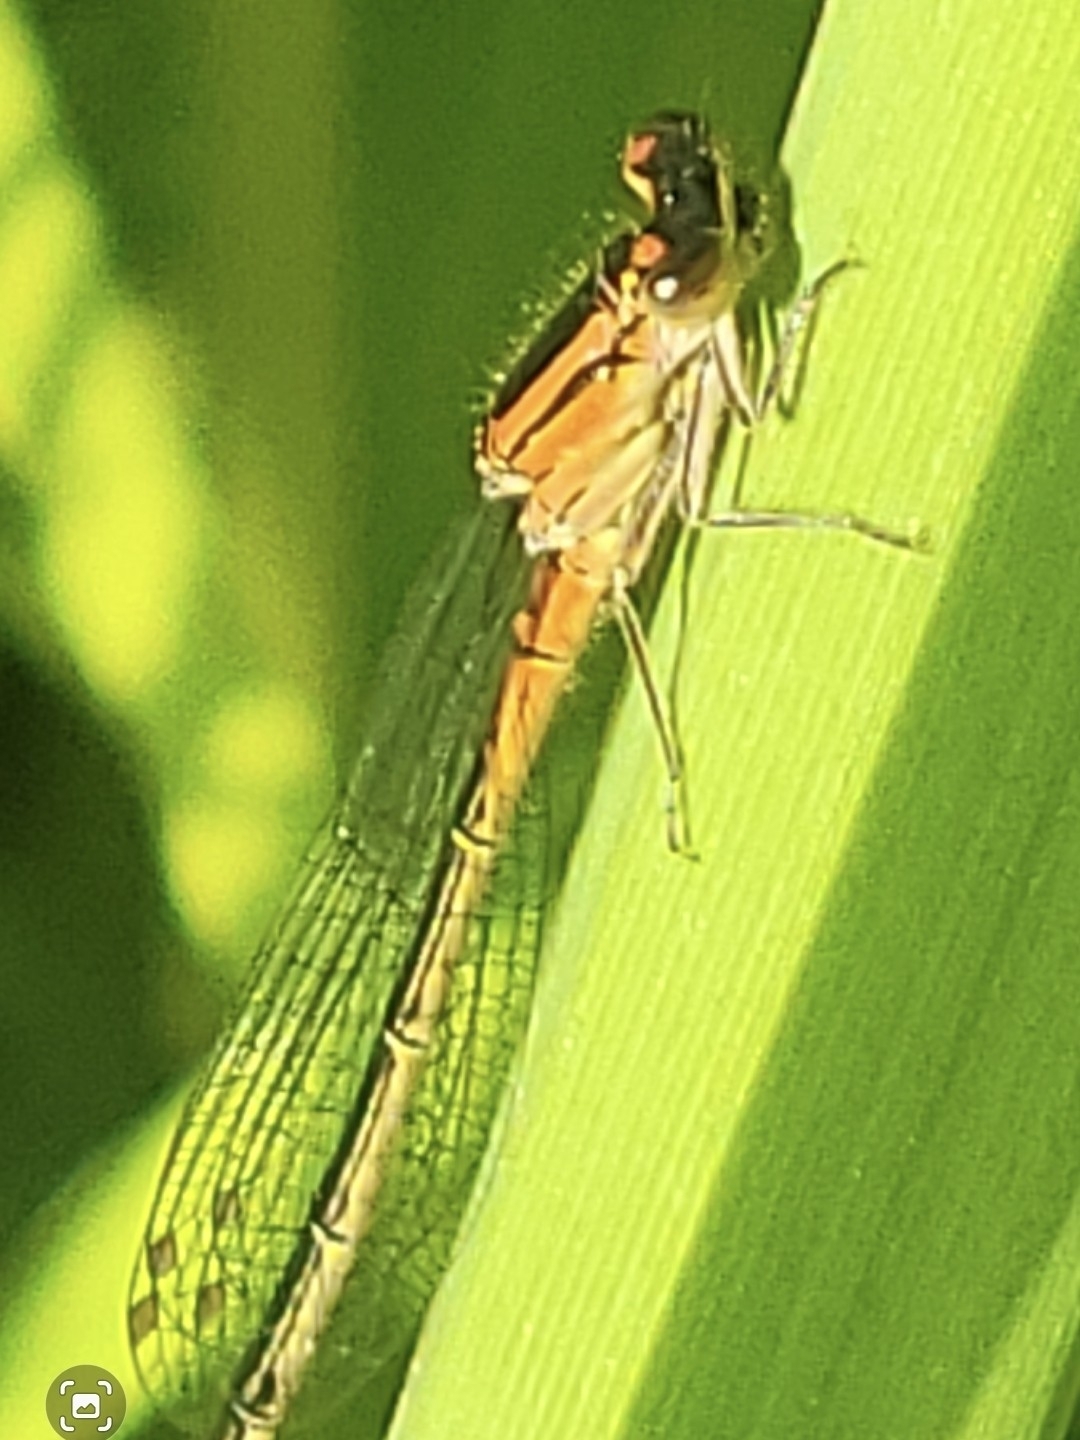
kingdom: Animalia
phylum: Arthropoda
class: Insecta
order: Odonata
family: Coenagrionidae
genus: Ischnura
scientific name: Ischnura verticalis
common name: Eastern forktail
